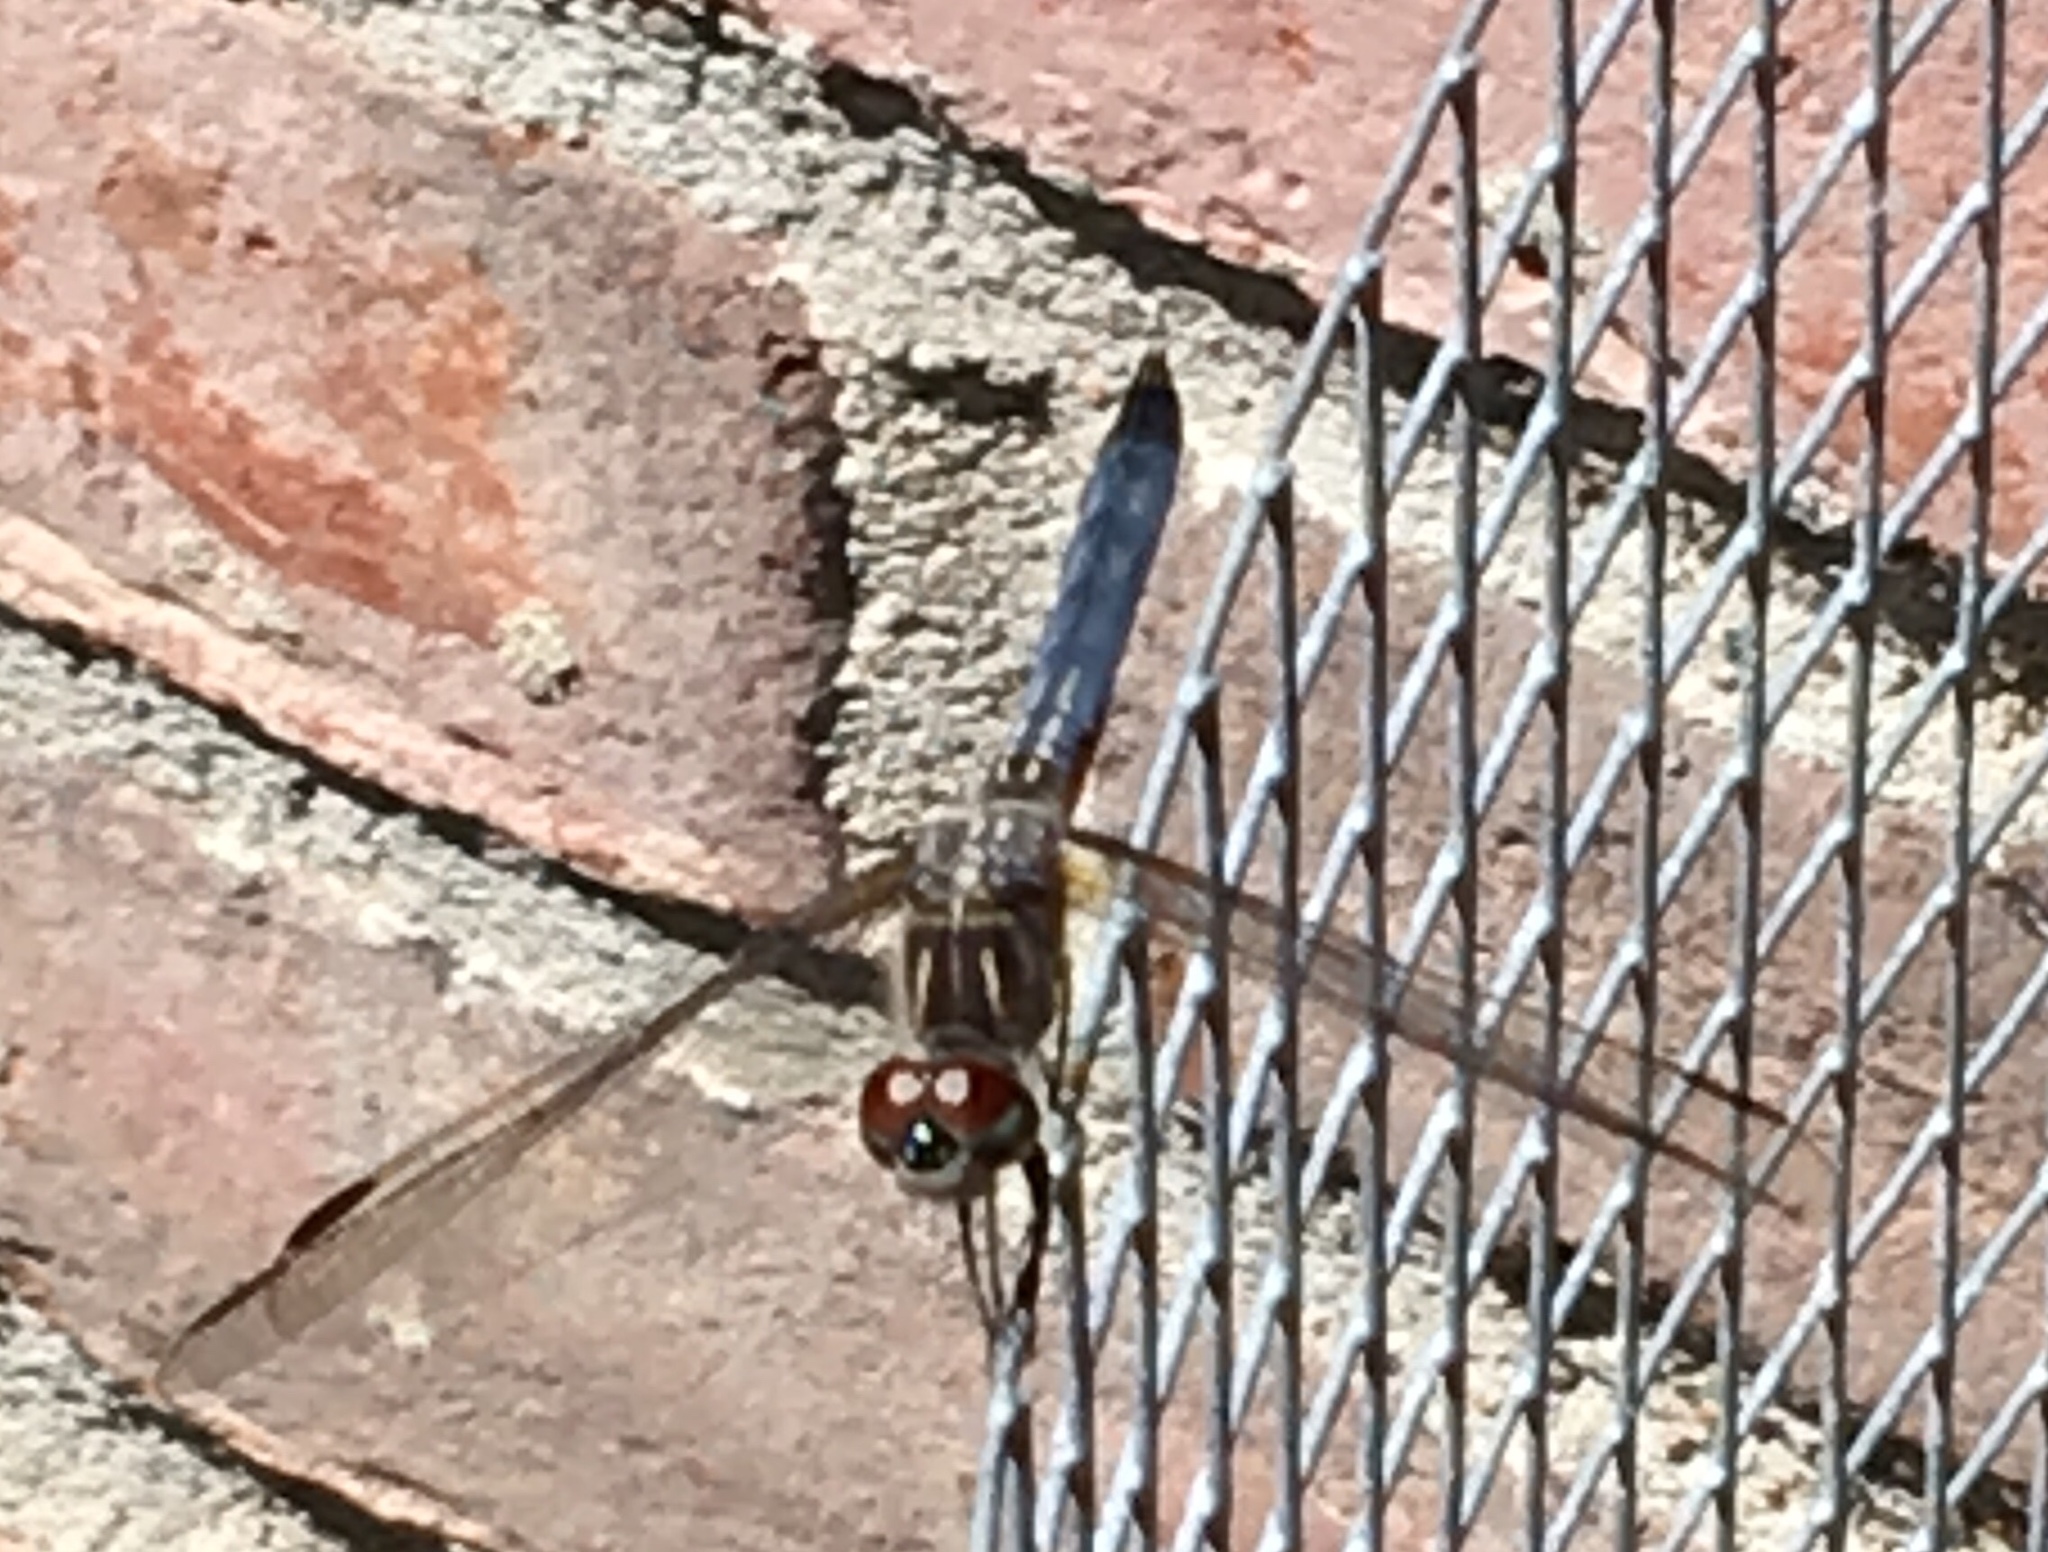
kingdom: Animalia
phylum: Arthropoda
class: Insecta
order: Odonata
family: Libellulidae
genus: Pachydiplax
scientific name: Pachydiplax longipennis
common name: Blue dasher
